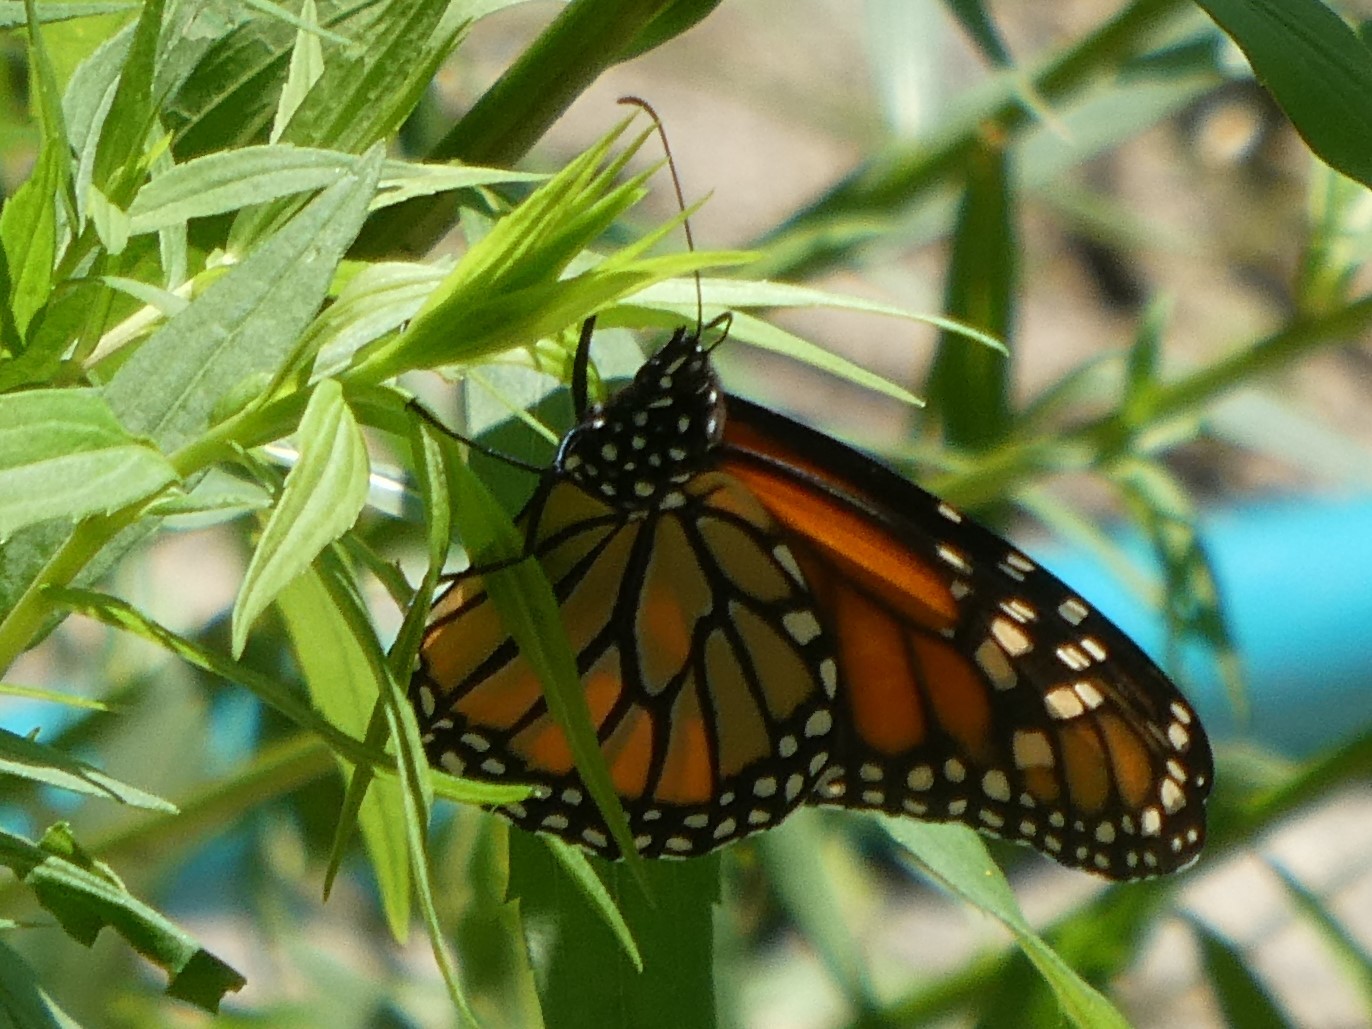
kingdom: Animalia
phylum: Arthropoda
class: Insecta
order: Lepidoptera
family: Nymphalidae
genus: Danaus
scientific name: Danaus plexippus
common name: Monarch
